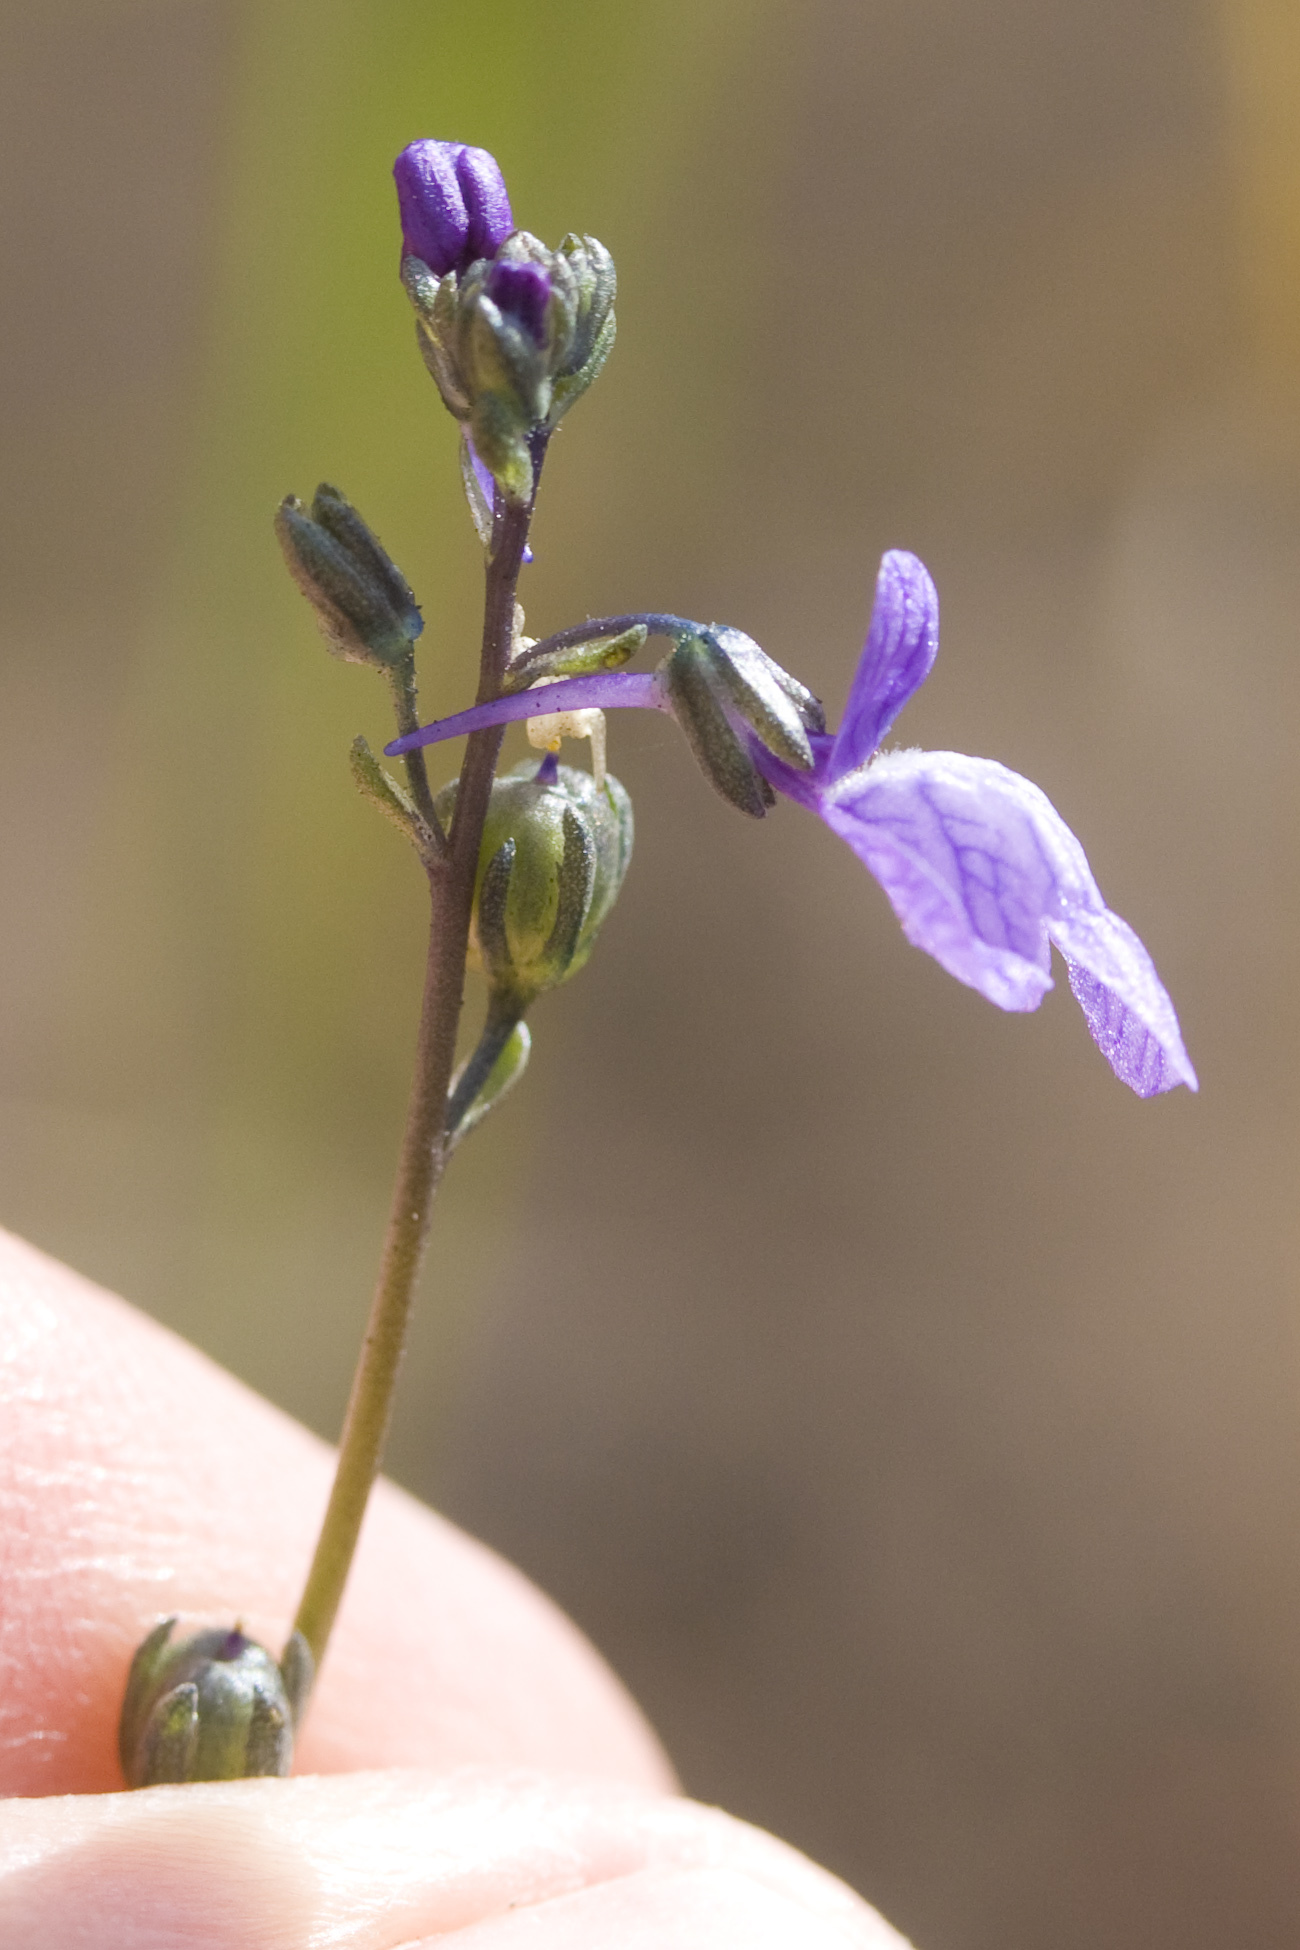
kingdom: Plantae
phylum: Tracheophyta
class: Magnoliopsida
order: Lamiales
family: Plantaginaceae
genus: Nuttallanthus
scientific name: Nuttallanthus texanus
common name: Texas toadflax
